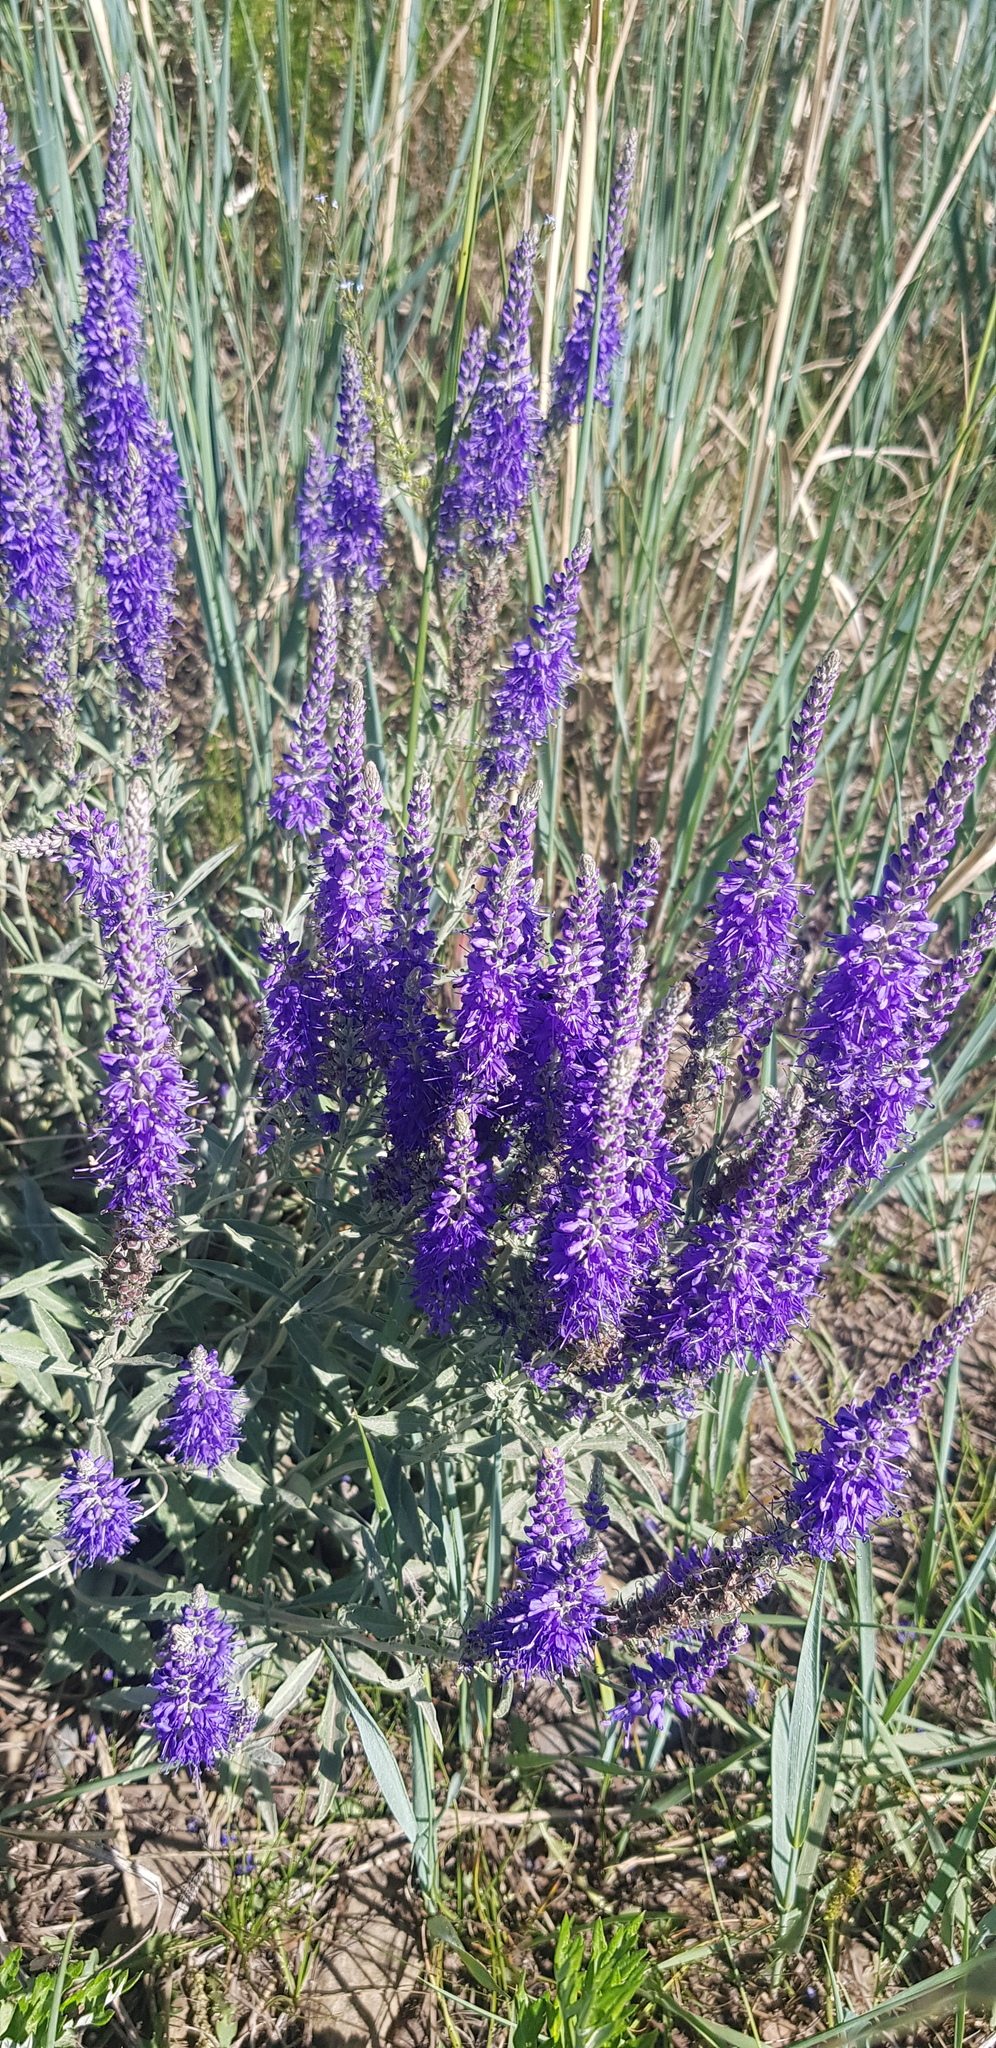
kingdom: Plantae
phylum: Tracheophyta
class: Magnoliopsida
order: Lamiales
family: Plantaginaceae
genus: Veronica
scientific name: Veronica incana
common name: Silver speedwell
